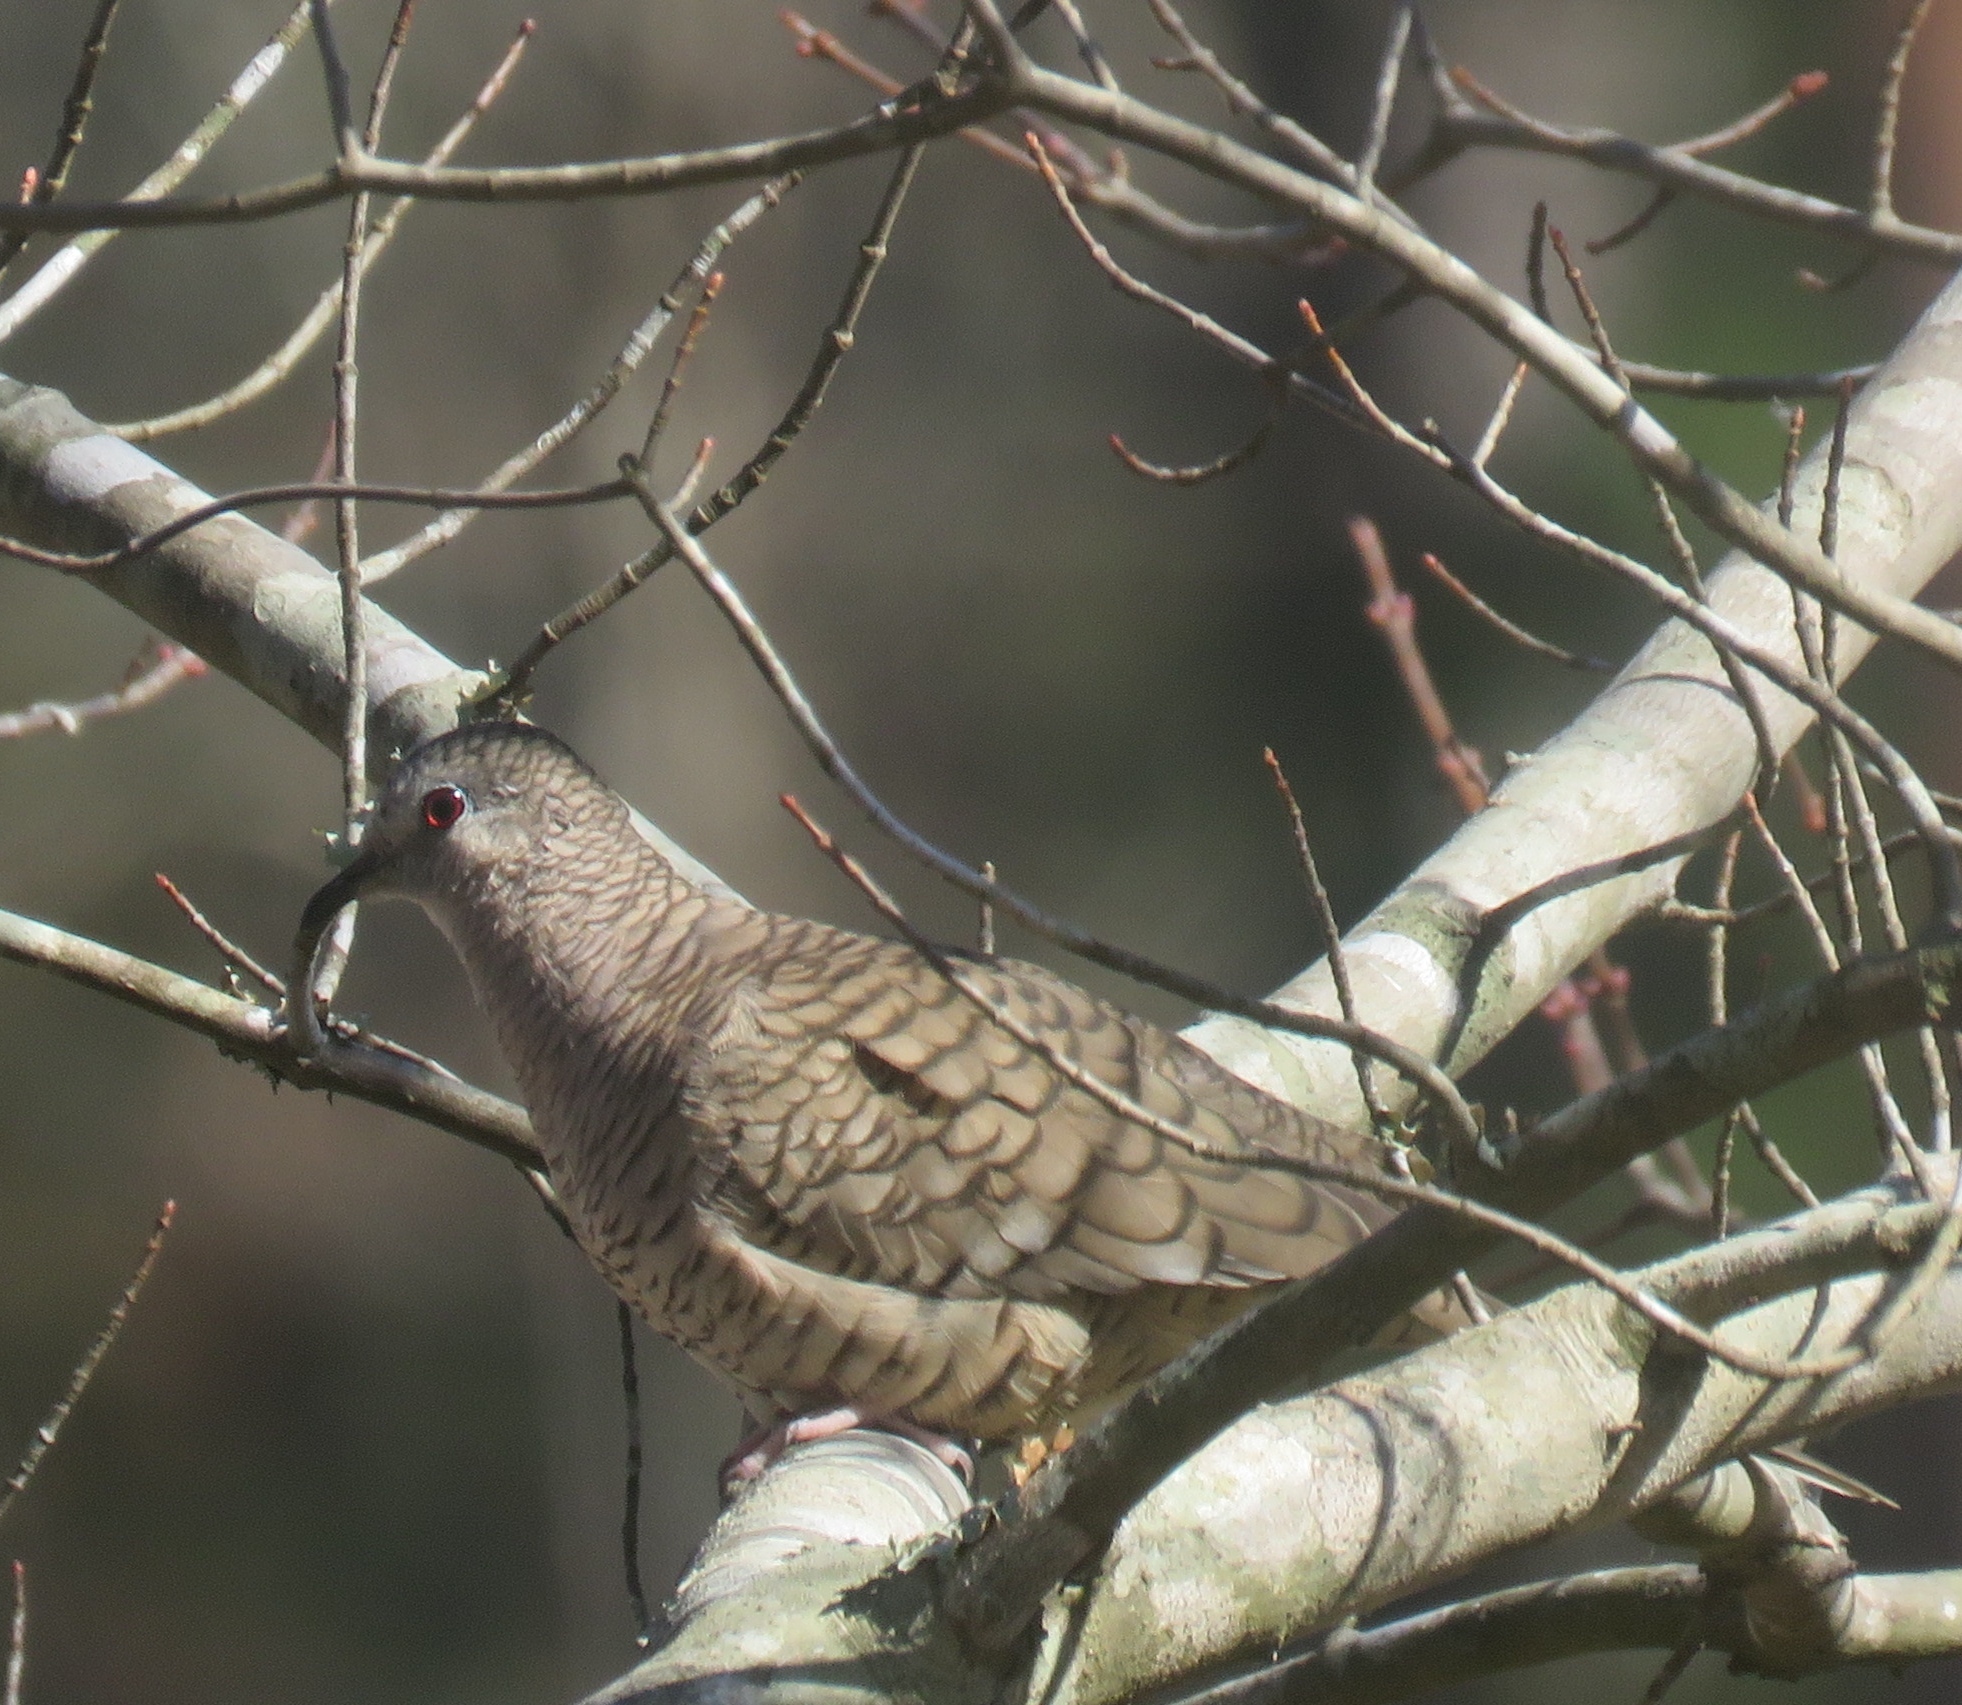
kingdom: Animalia
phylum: Chordata
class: Aves
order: Columbiformes
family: Columbidae
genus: Columbina
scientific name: Columbina inca
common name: Inca dove
